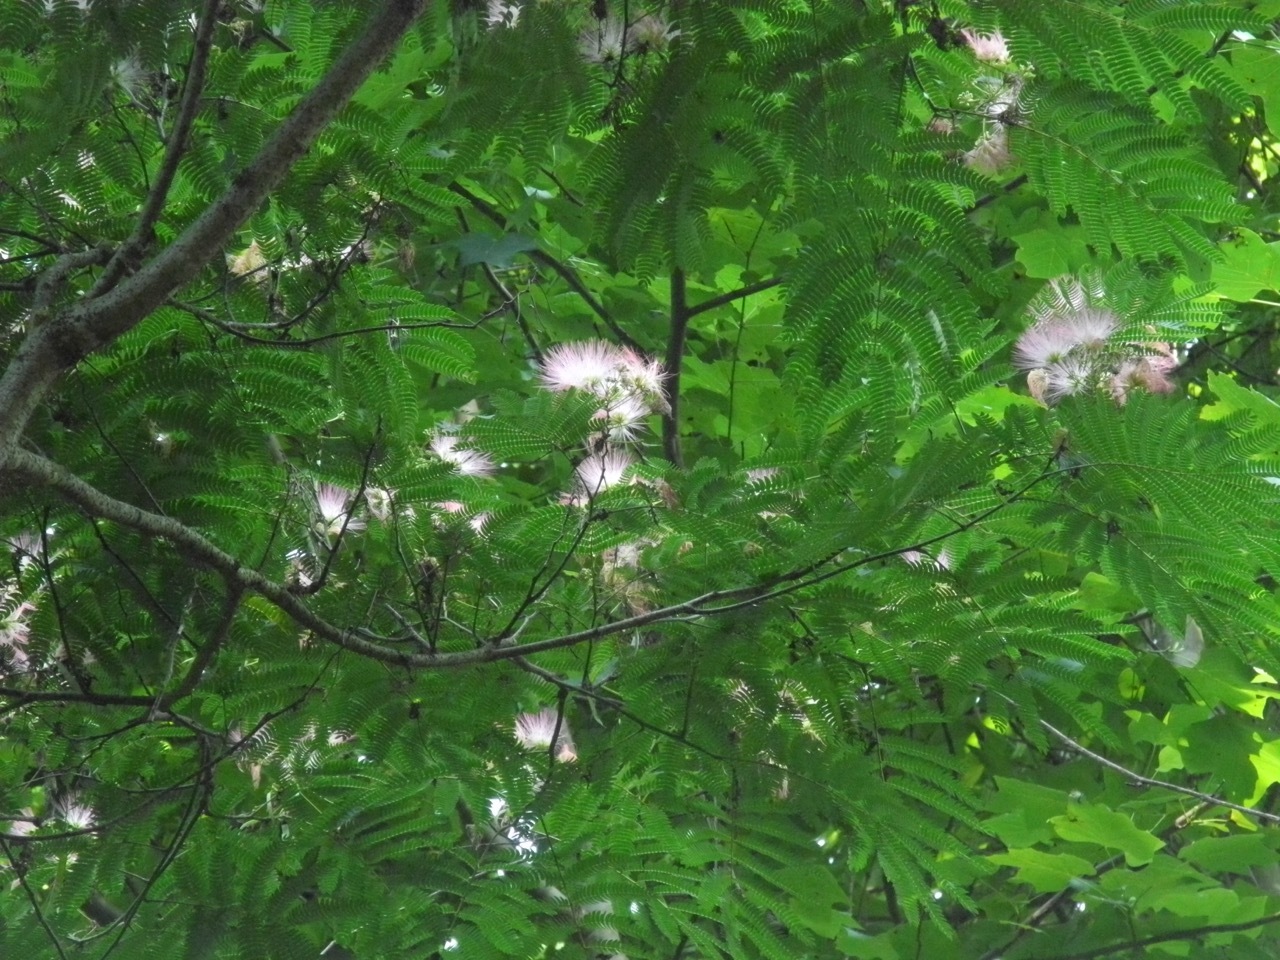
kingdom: Plantae
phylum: Tracheophyta
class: Magnoliopsida
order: Fabales
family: Fabaceae
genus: Albizia
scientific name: Albizia julibrissin
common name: Silktree
